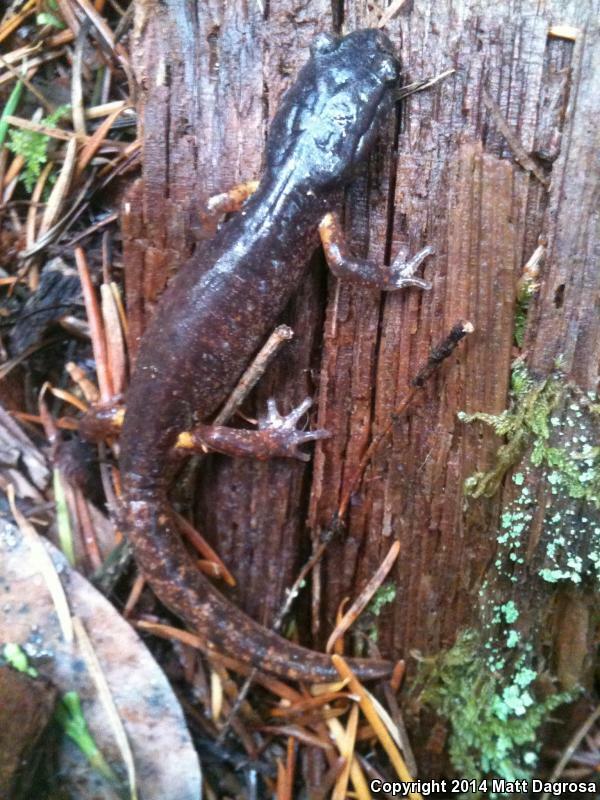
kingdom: Animalia
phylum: Chordata
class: Amphibia
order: Caudata
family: Plethodontidae
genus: Ensatina
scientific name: Ensatina eschscholtzii
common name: Ensatina
